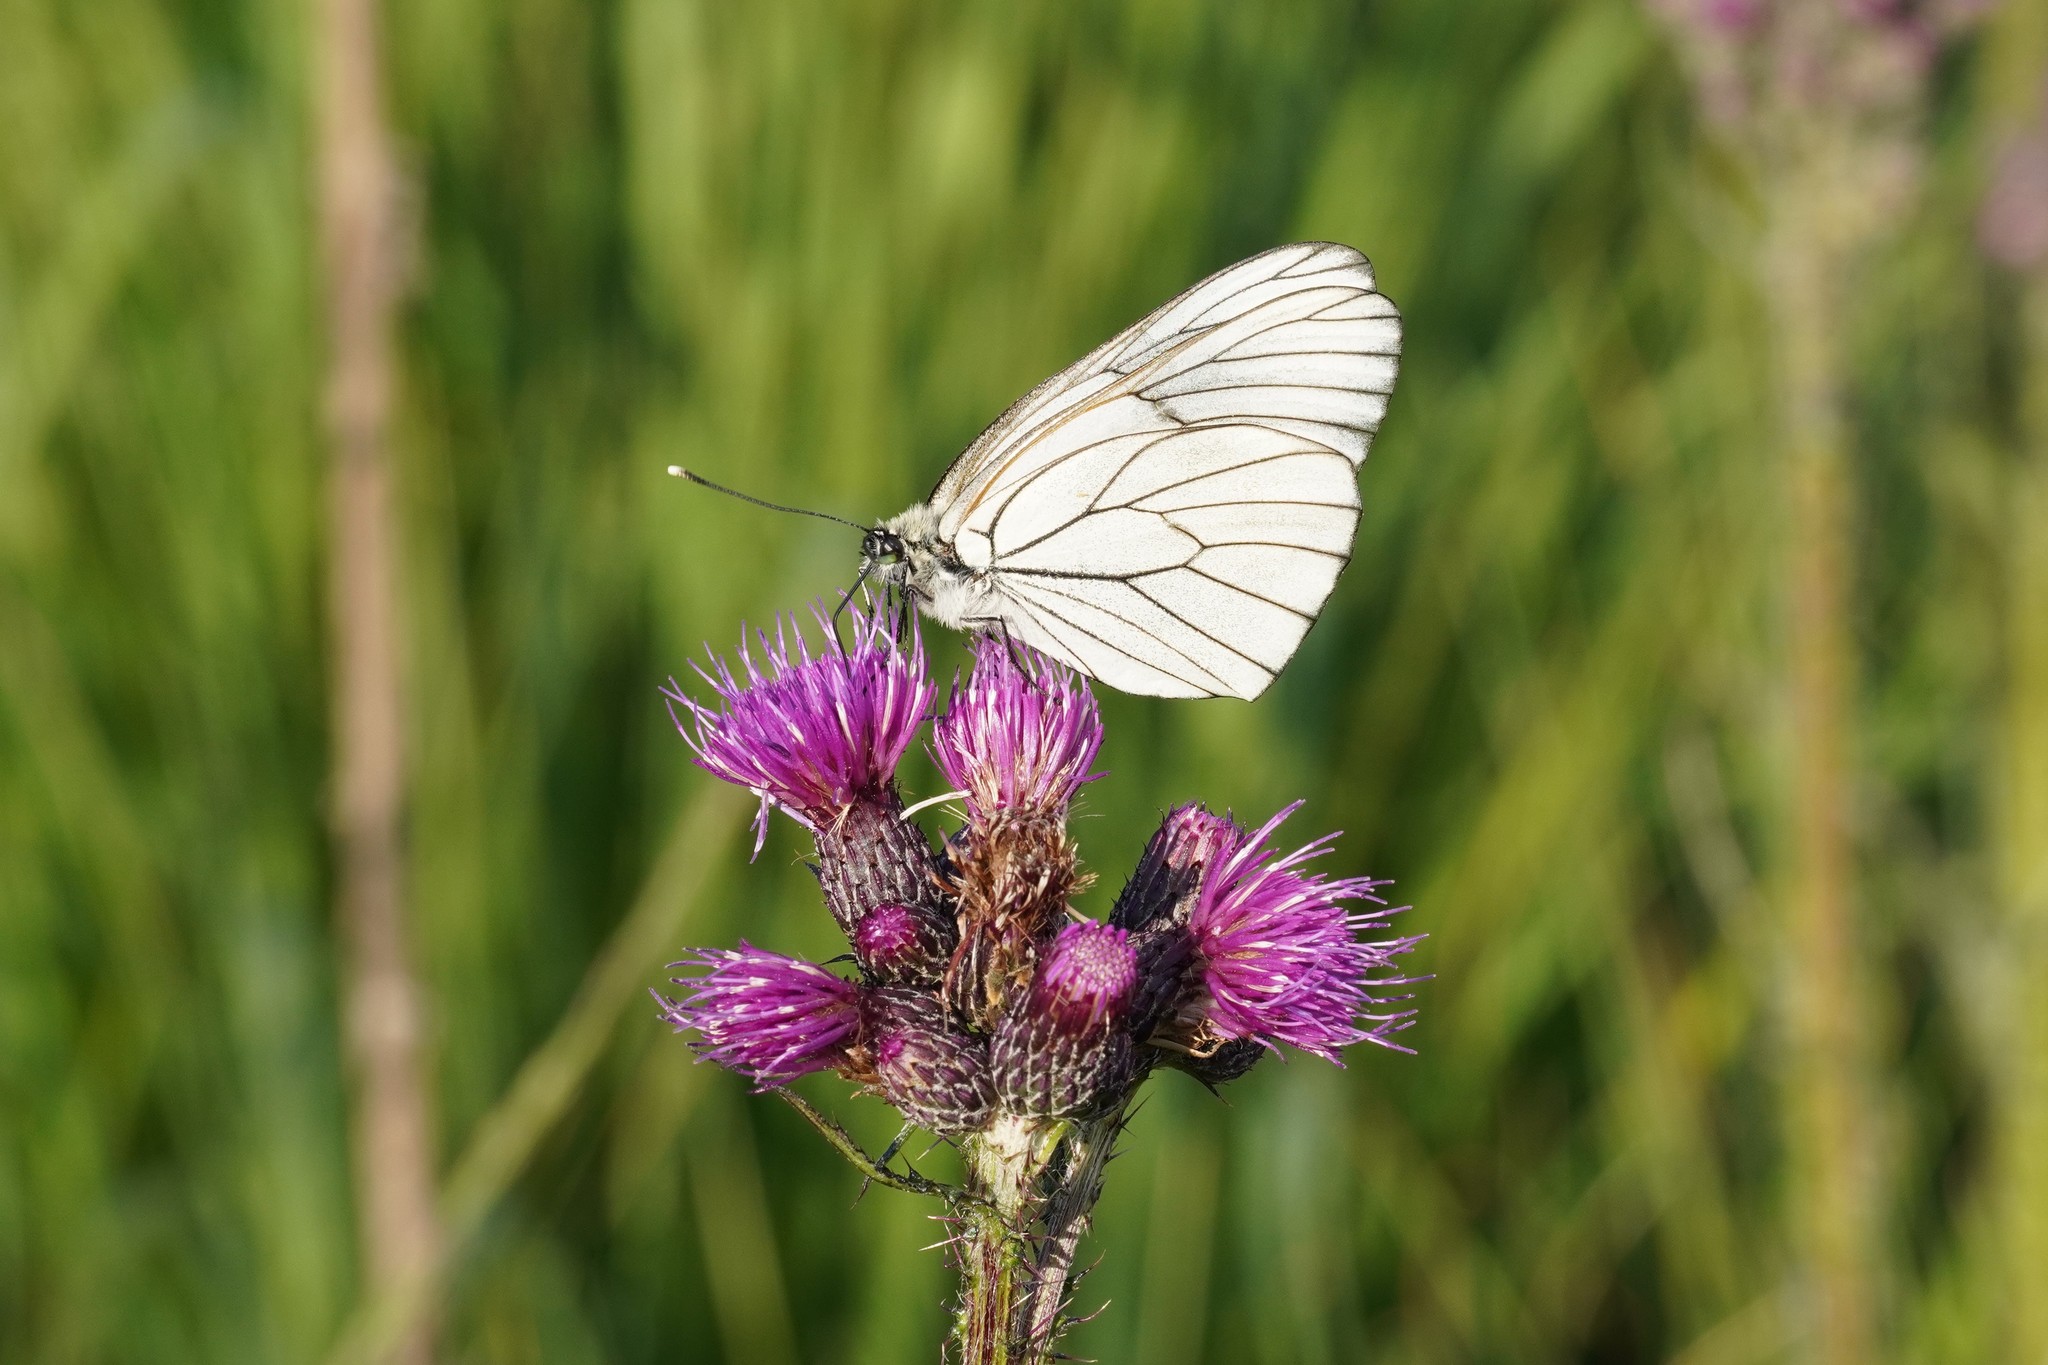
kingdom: Animalia
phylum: Arthropoda
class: Insecta
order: Lepidoptera
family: Pieridae
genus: Aporia
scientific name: Aporia crataegi
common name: Black-veined white
